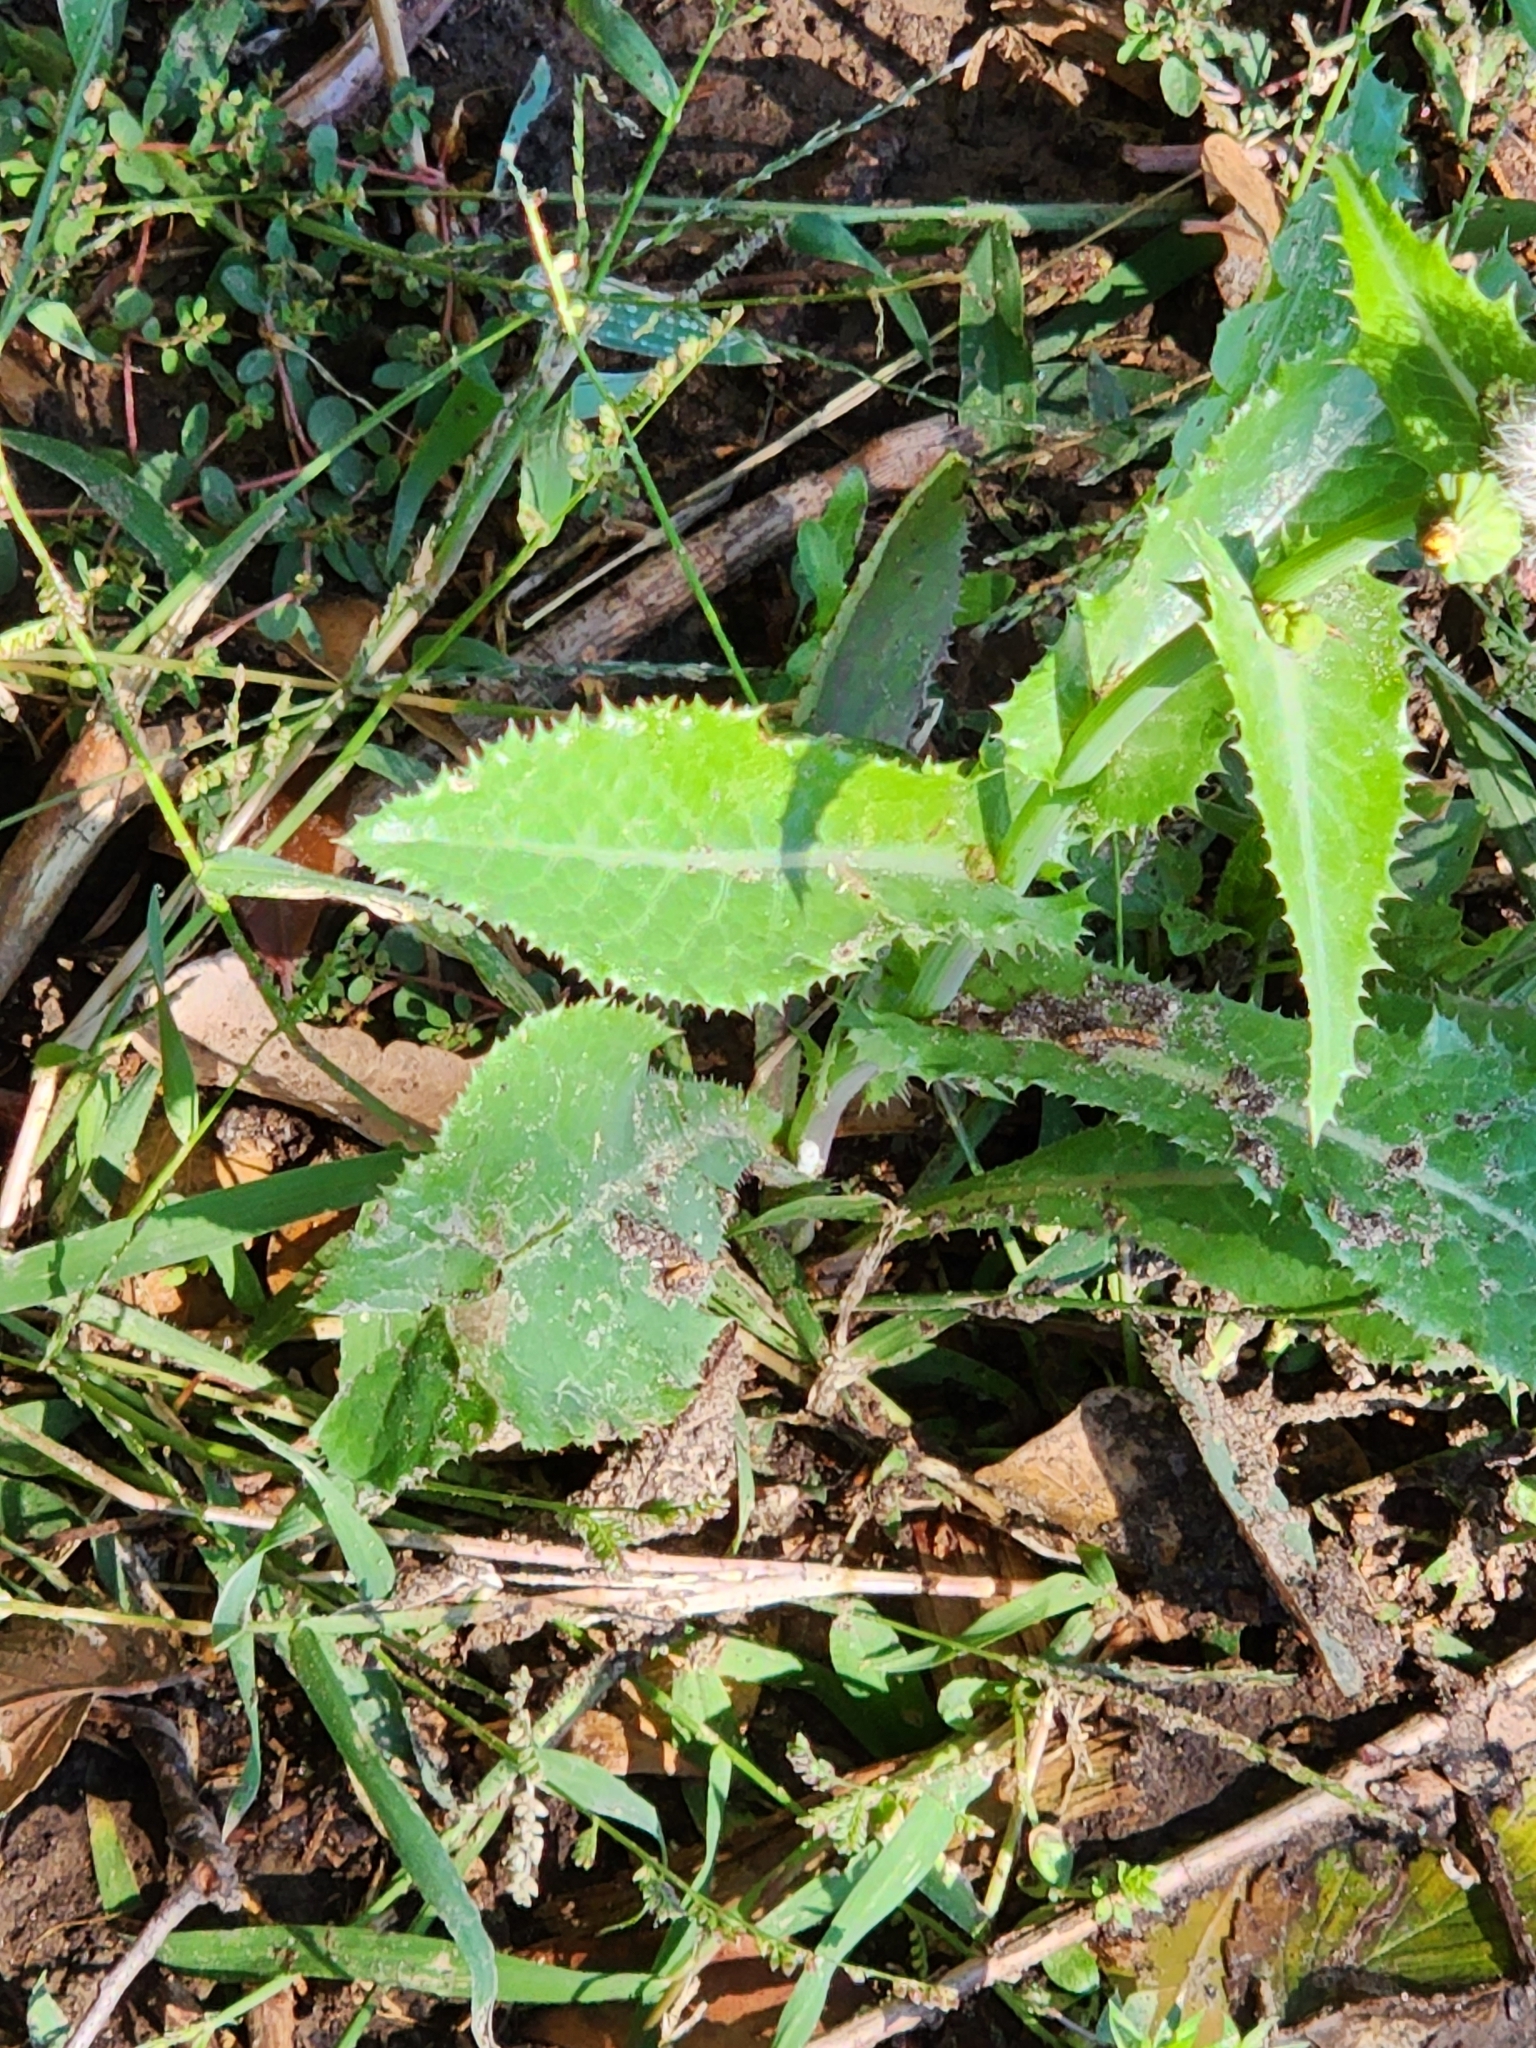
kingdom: Plantae
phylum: Tracheophyta
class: Magnoliopsida
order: Asterales
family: Asteraceae
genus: Sonchus
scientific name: Sonchus asper
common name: Prickly sow-thistle
